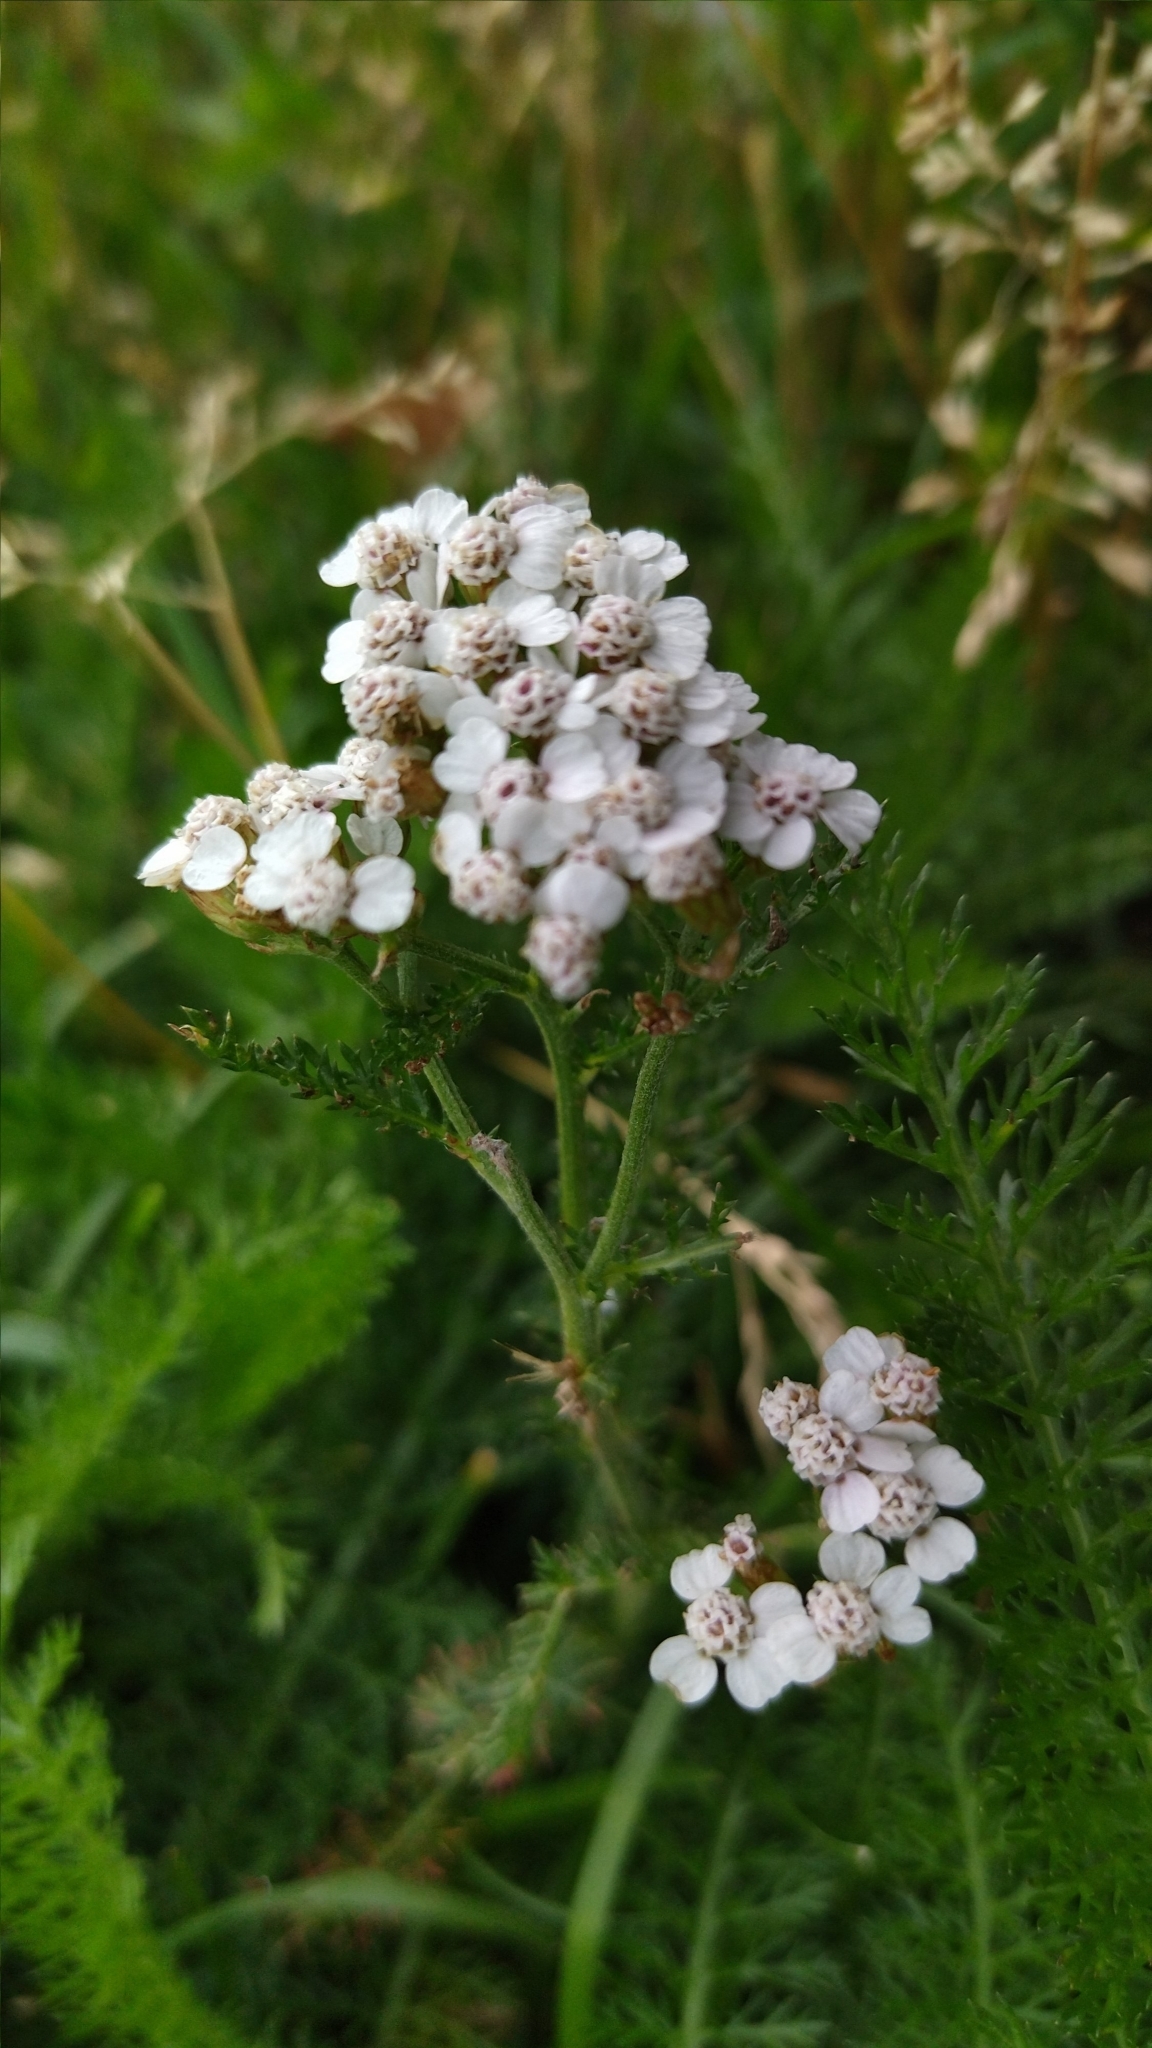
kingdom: Plantae
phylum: Tracheophyta
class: Magnoliopsida
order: Asterales
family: Asteraceae
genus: Achillea
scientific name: Achillea millefolium
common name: Yarrow
